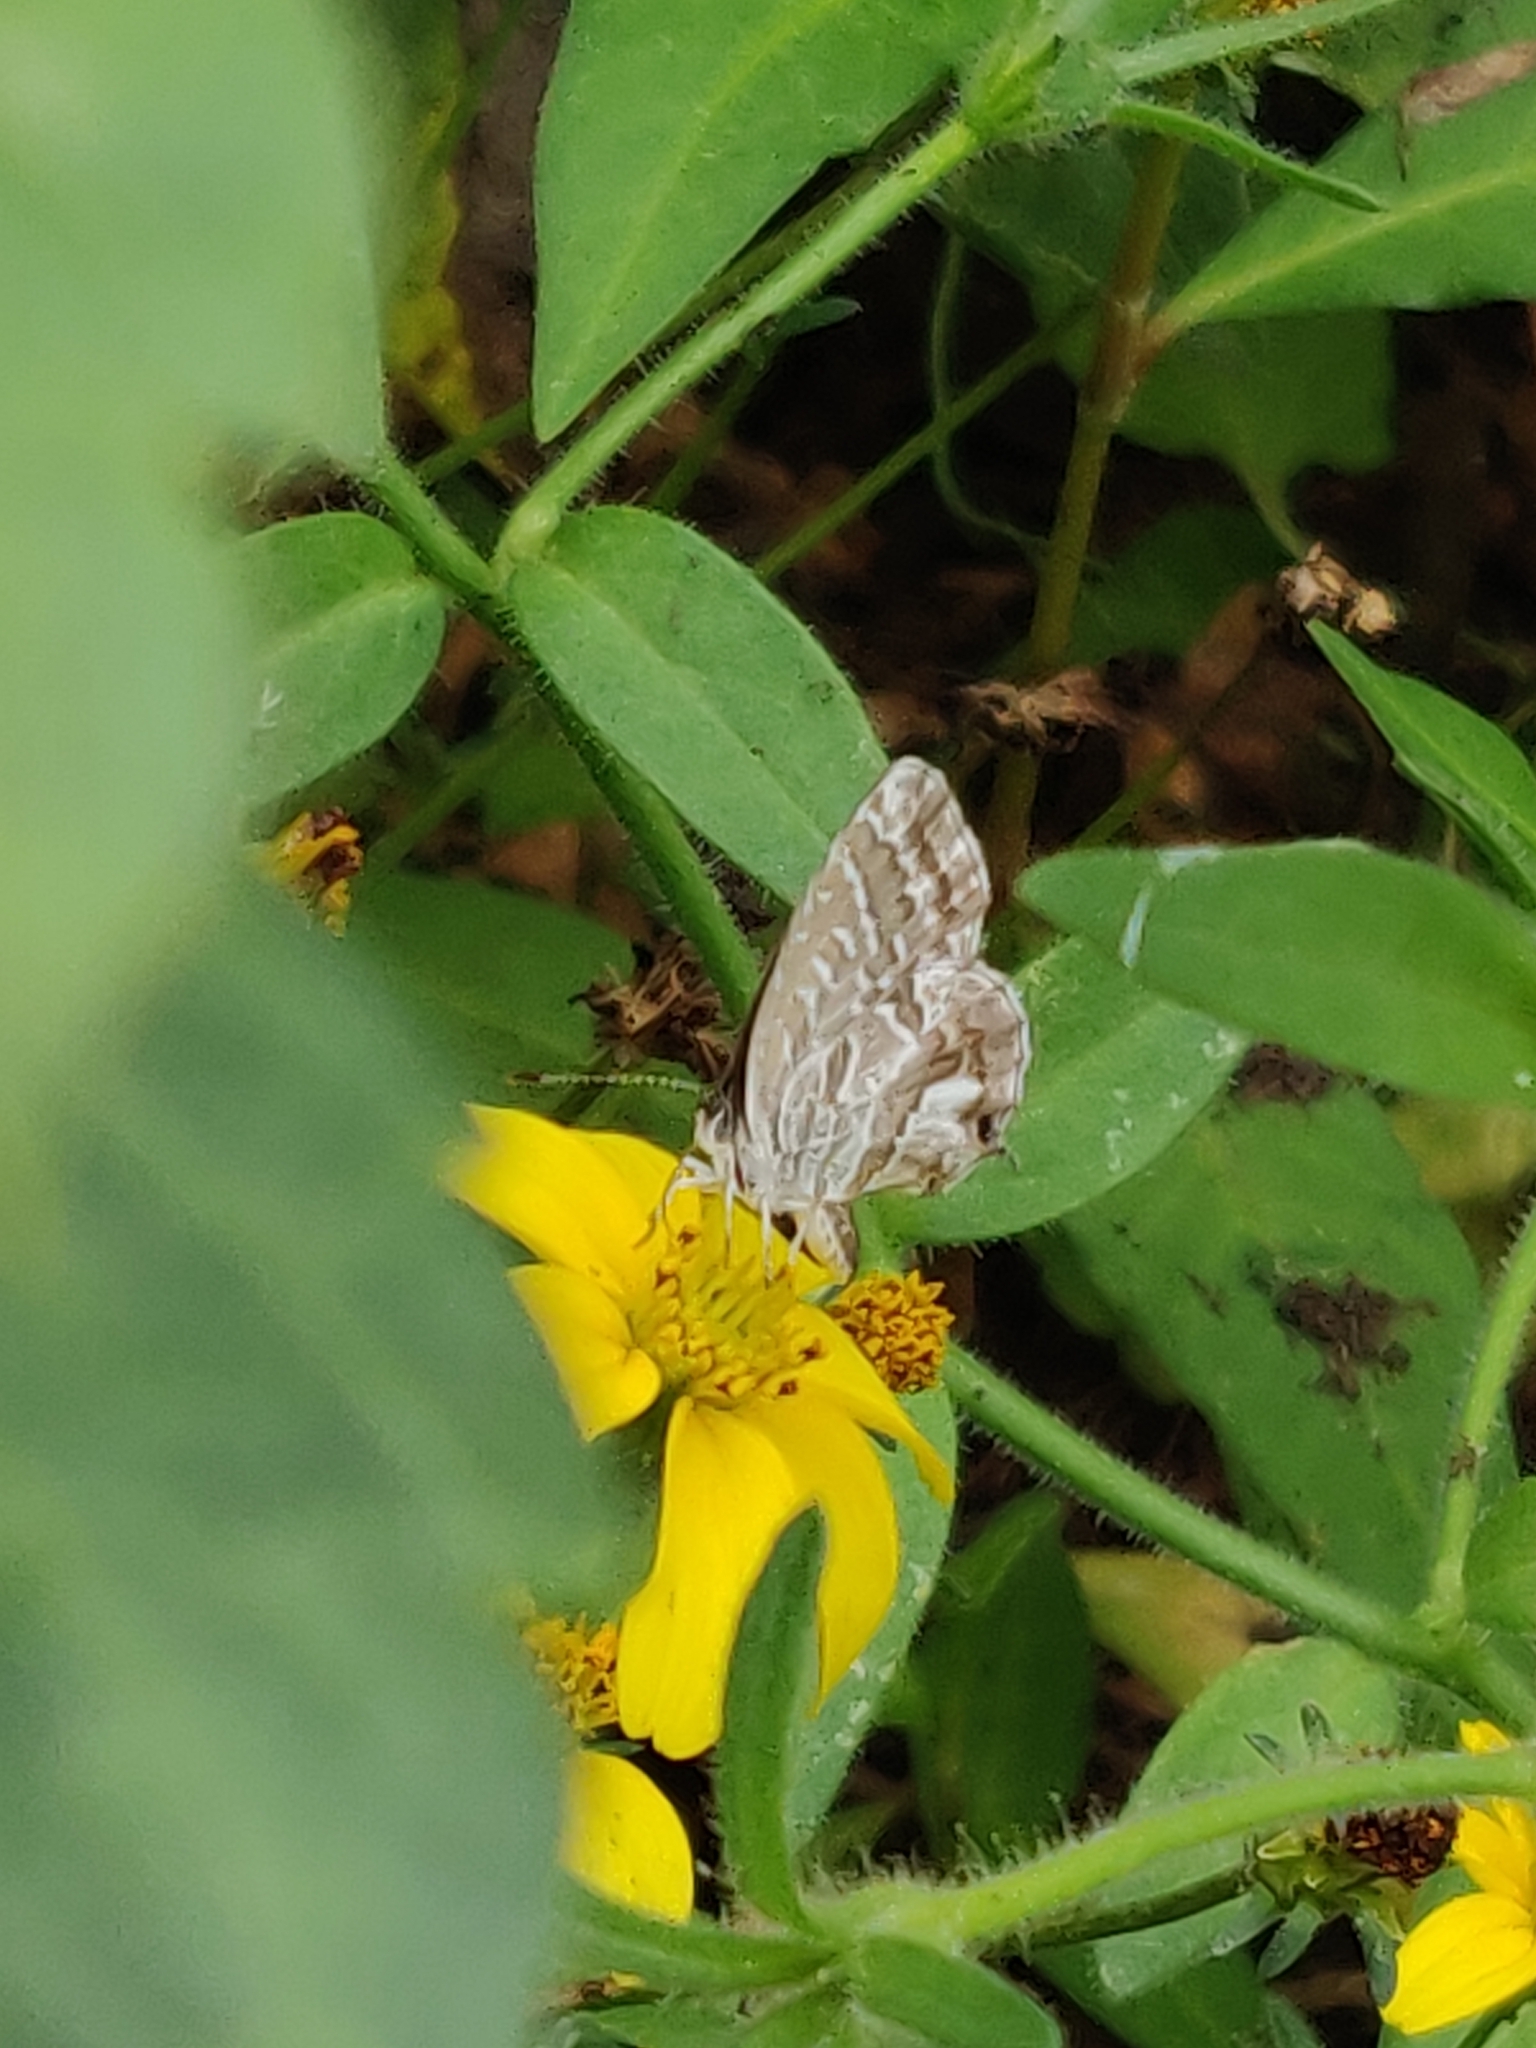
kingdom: Animalia
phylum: Arthropoda
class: Insecta
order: Lepidoptera
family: Lycaenidae
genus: Cacyreus
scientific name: Cacyreus marshalli
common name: Geranium bronze
